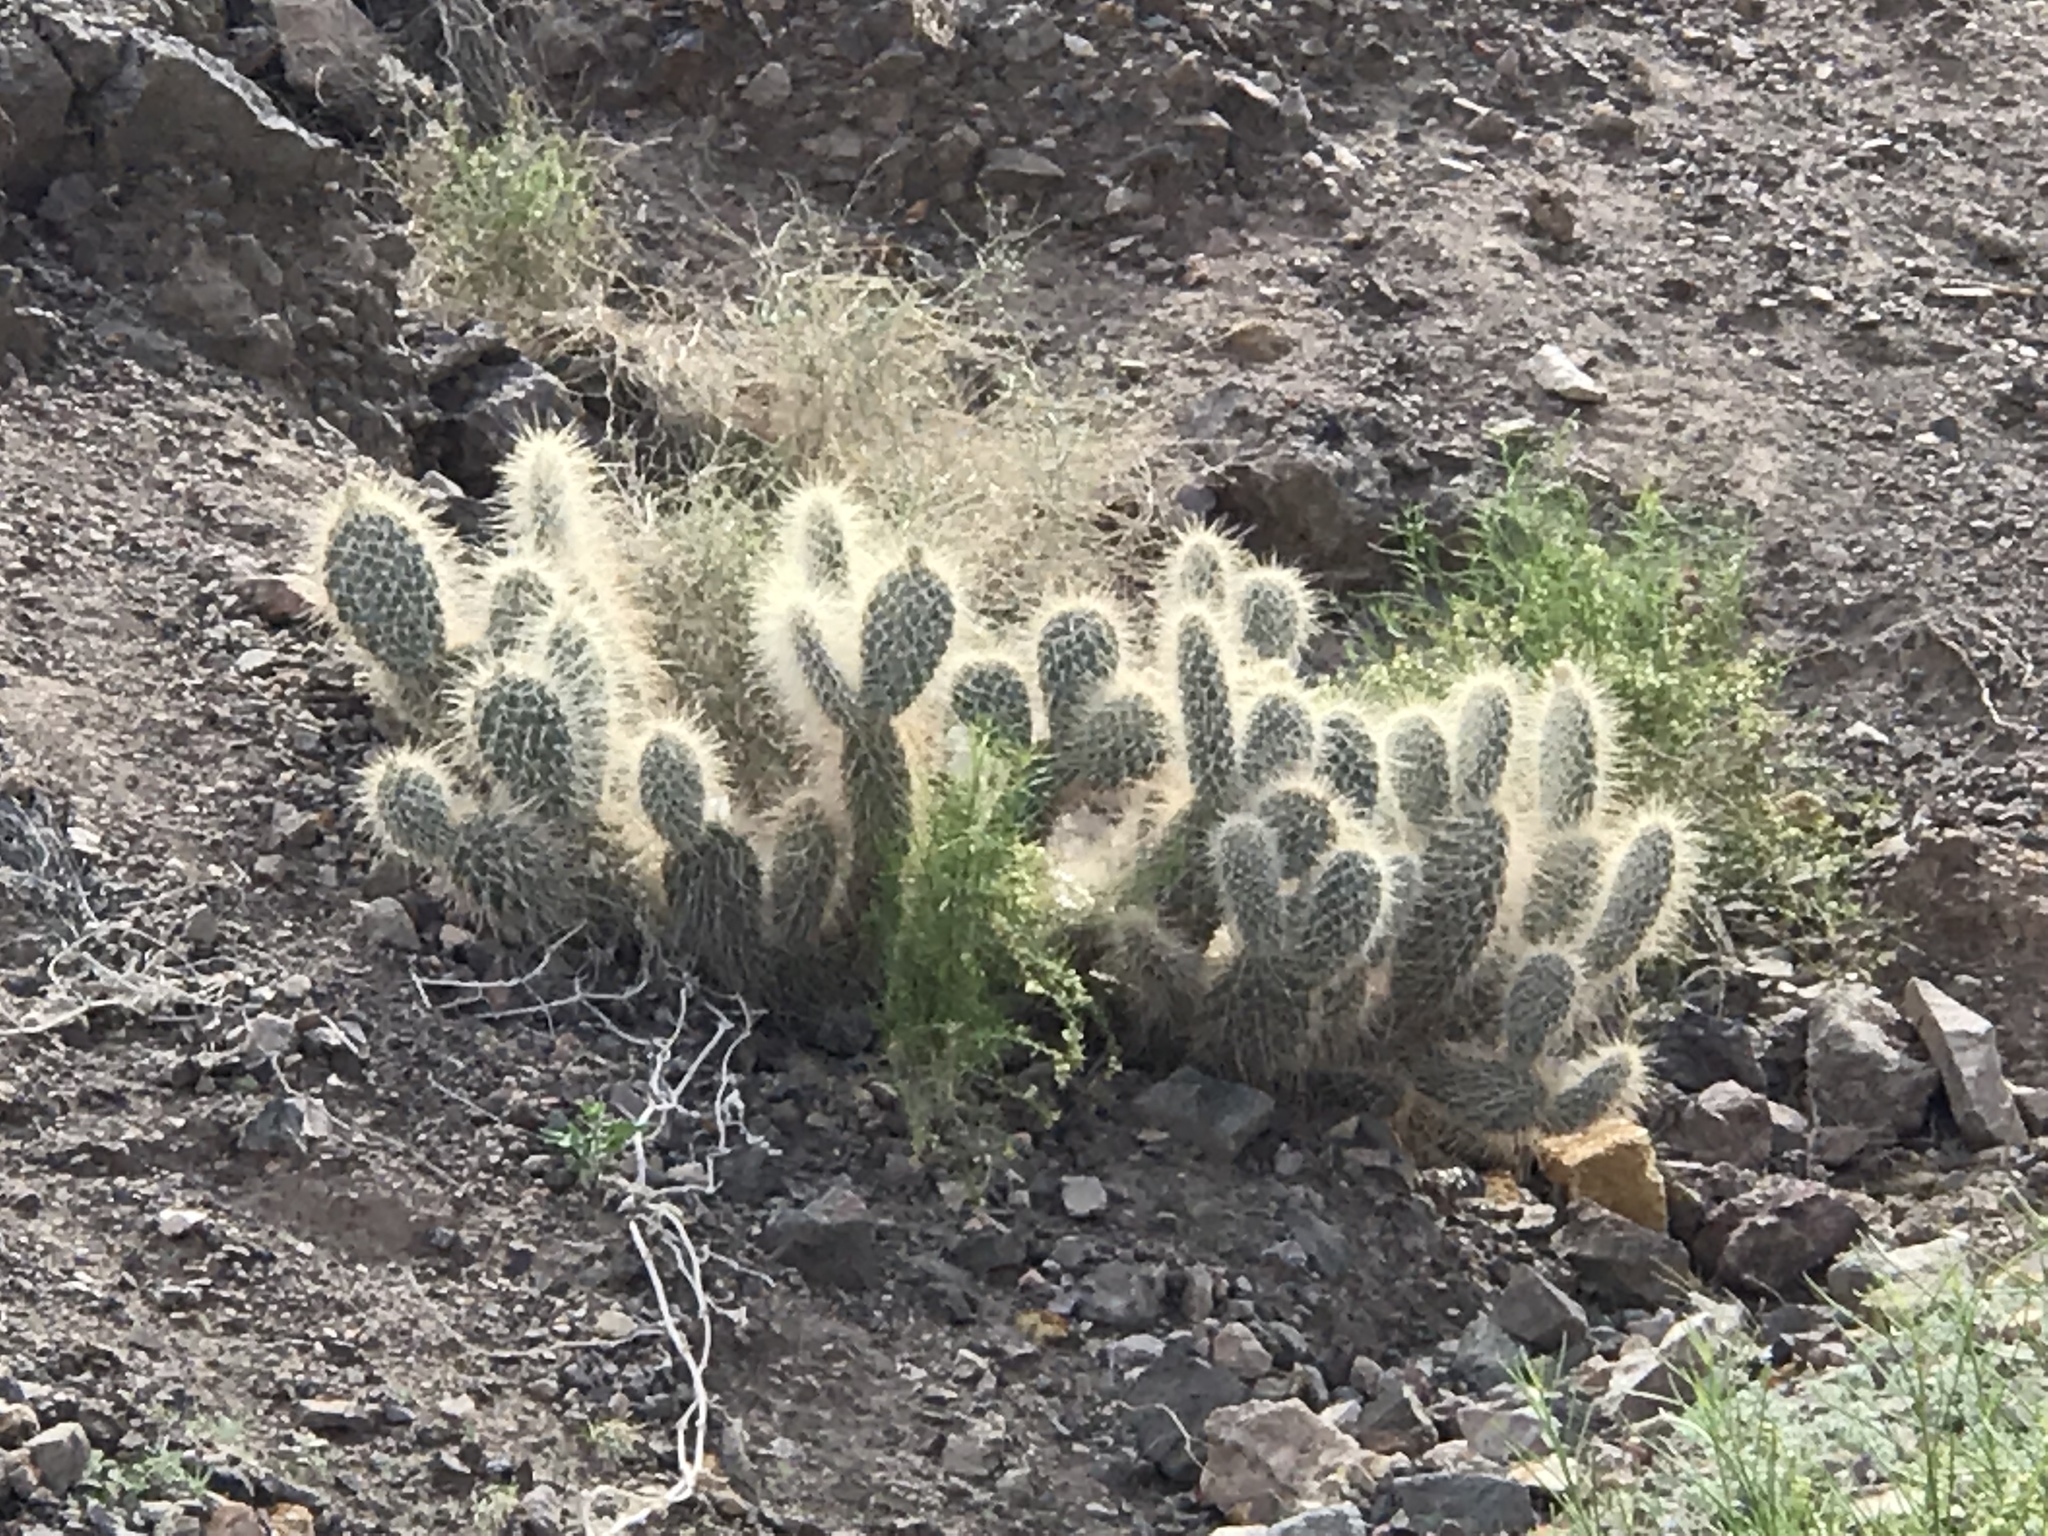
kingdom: Plantae
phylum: Tracheophyta
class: Magnoliopsida
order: Caryophyllales
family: Cactaceae
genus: Opuntia
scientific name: Opuntia polyacantha
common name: Plains prickly-pear
